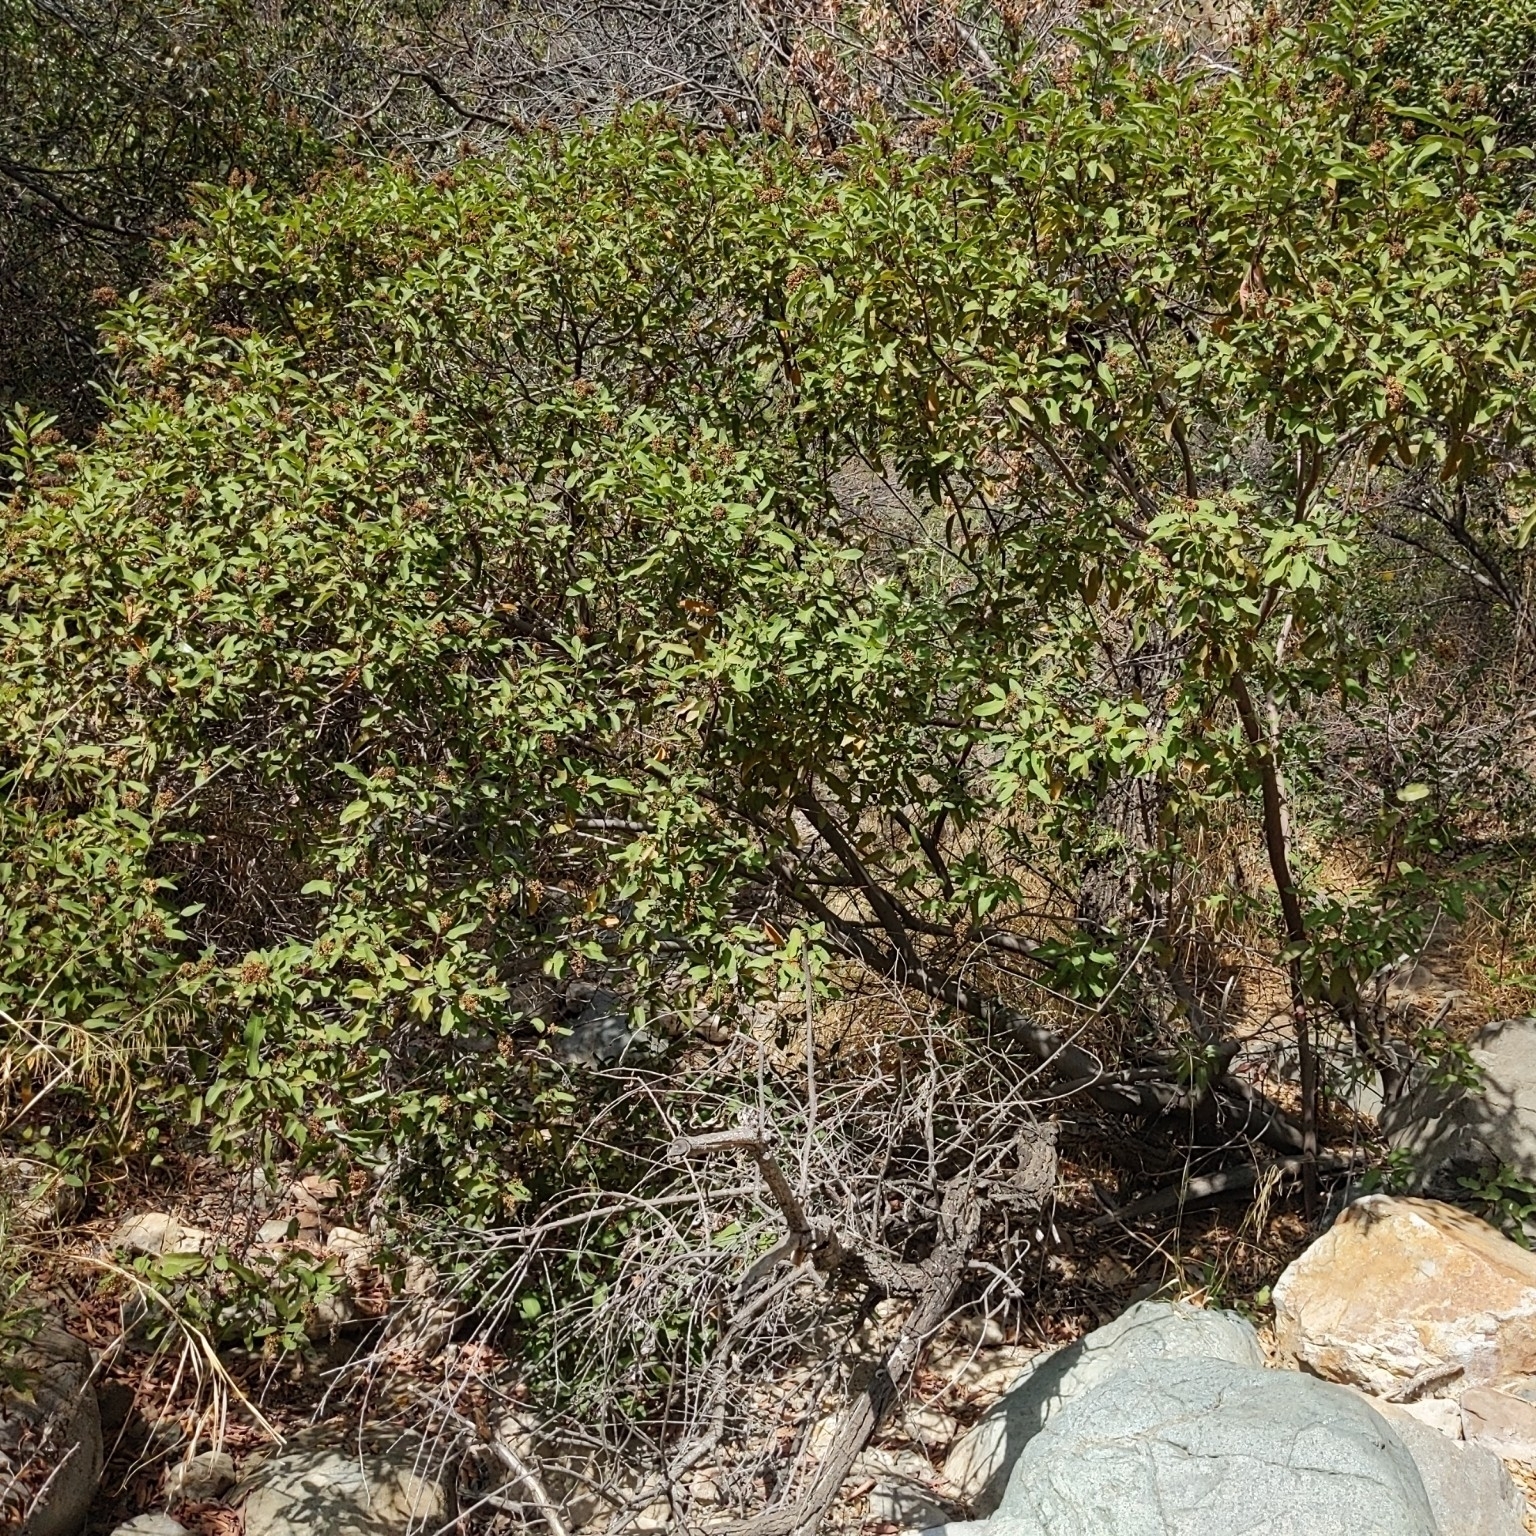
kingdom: Plantae
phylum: Tracheophyta
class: Magnoliopsida
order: Sapindales
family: Anacardiaceae
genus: Malosma
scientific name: Malosma laurina
